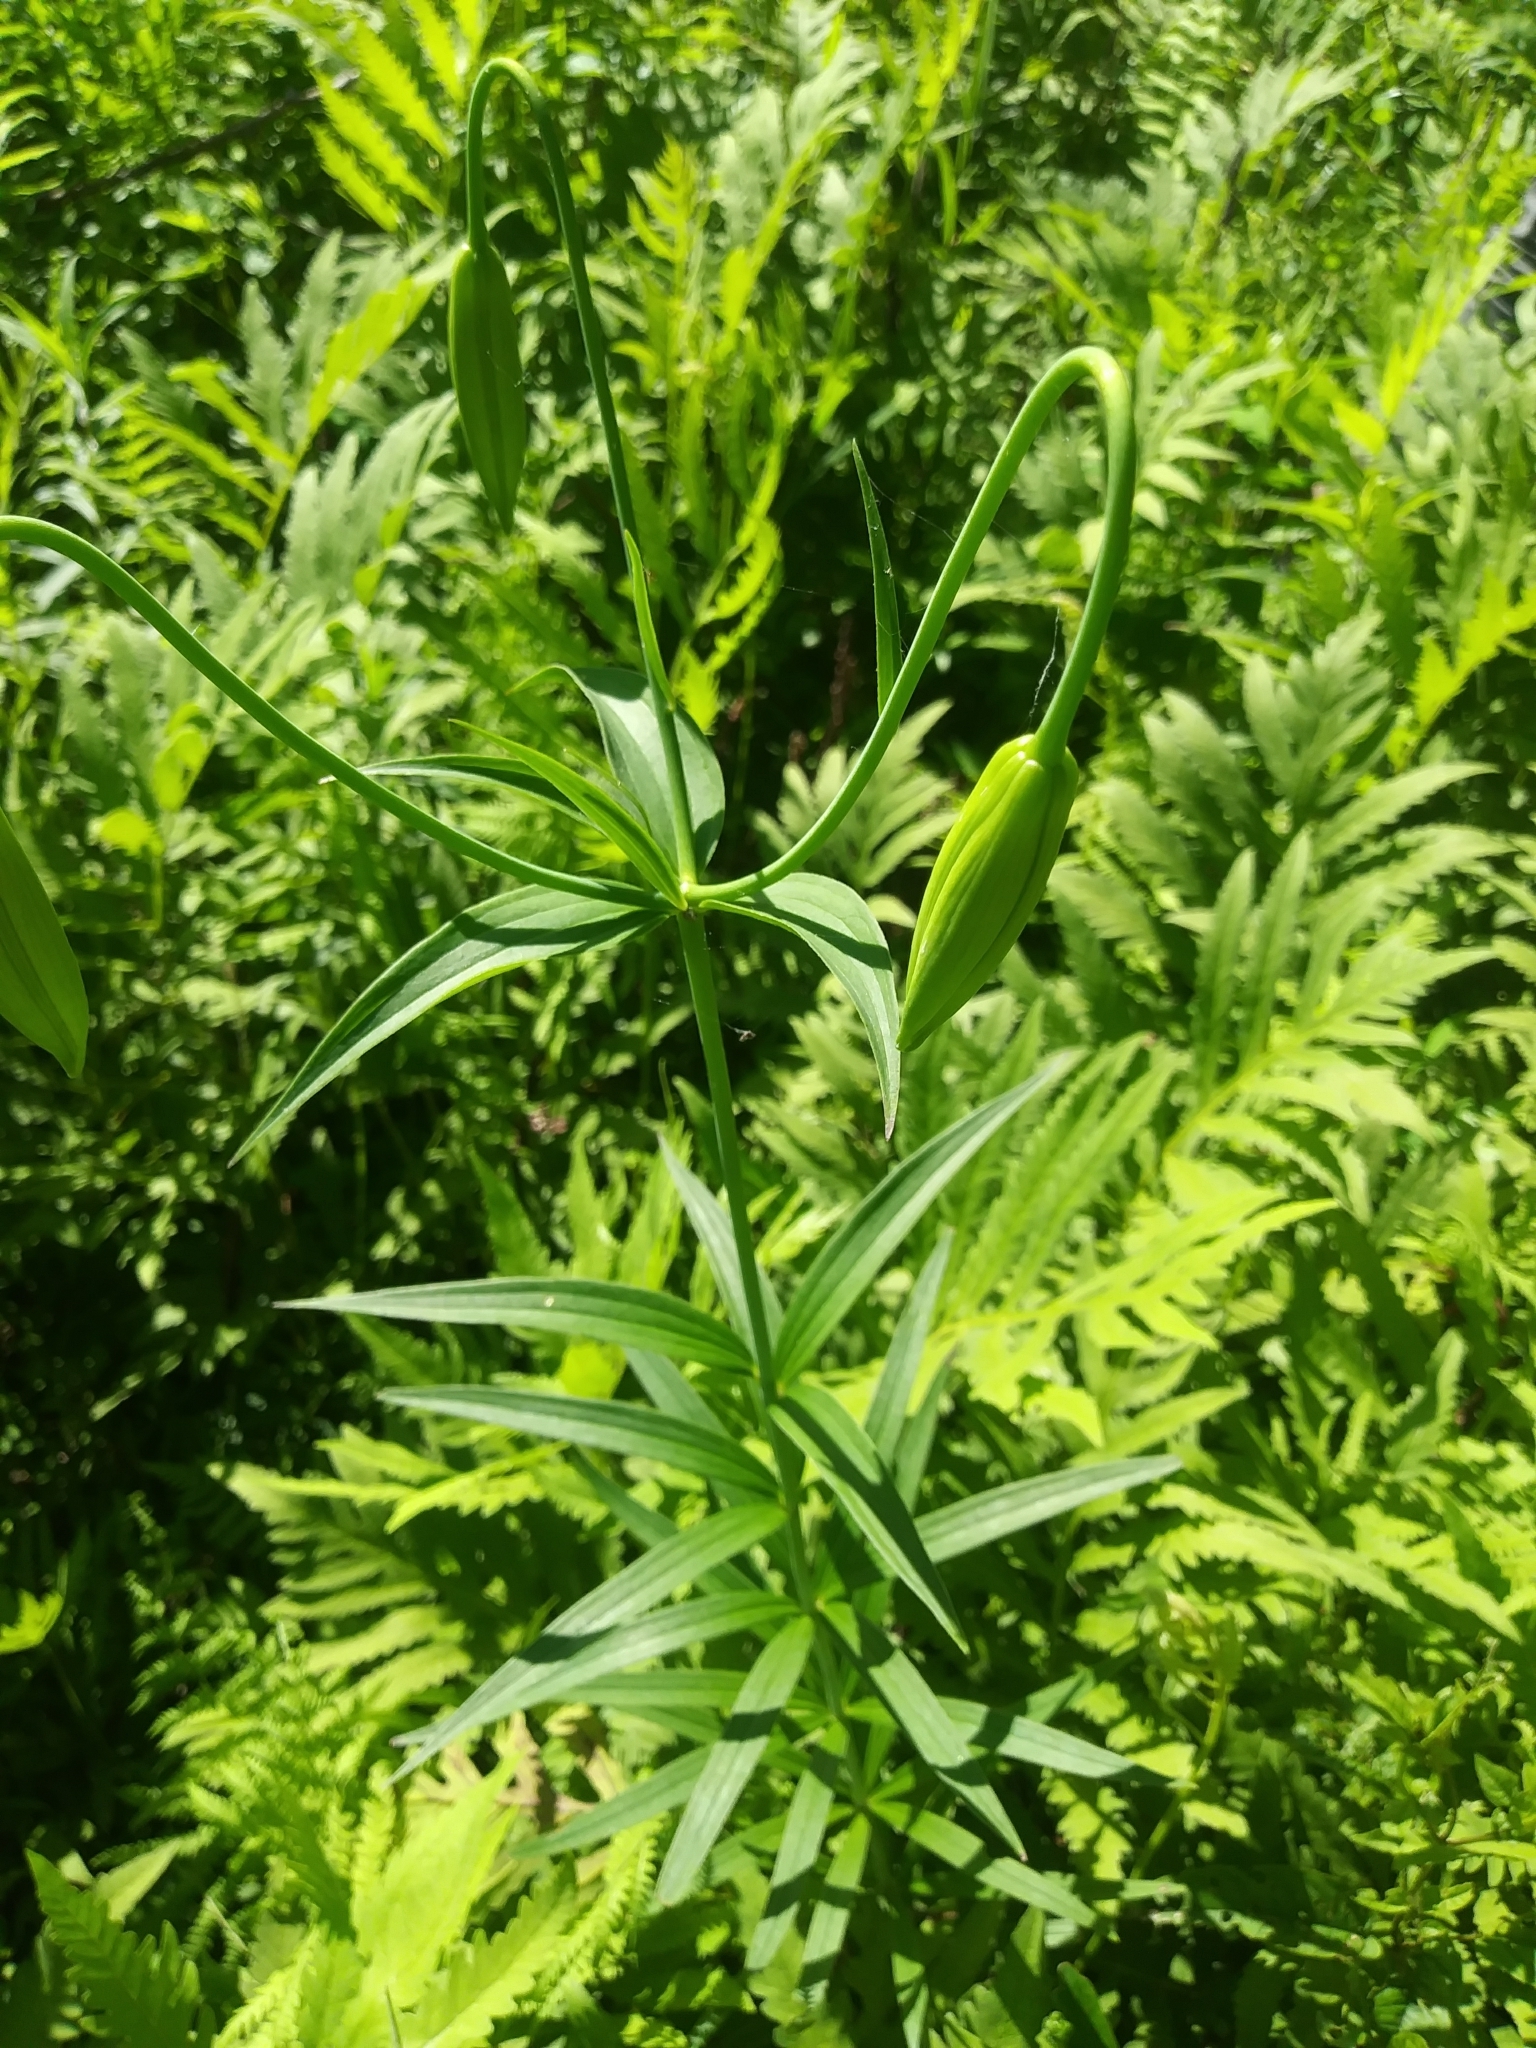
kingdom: Plantae
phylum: Tracheophyta
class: Liliopsida
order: Liliales
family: Liliaceae
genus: Lilium
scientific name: Lilium canadense
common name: Canada lily
